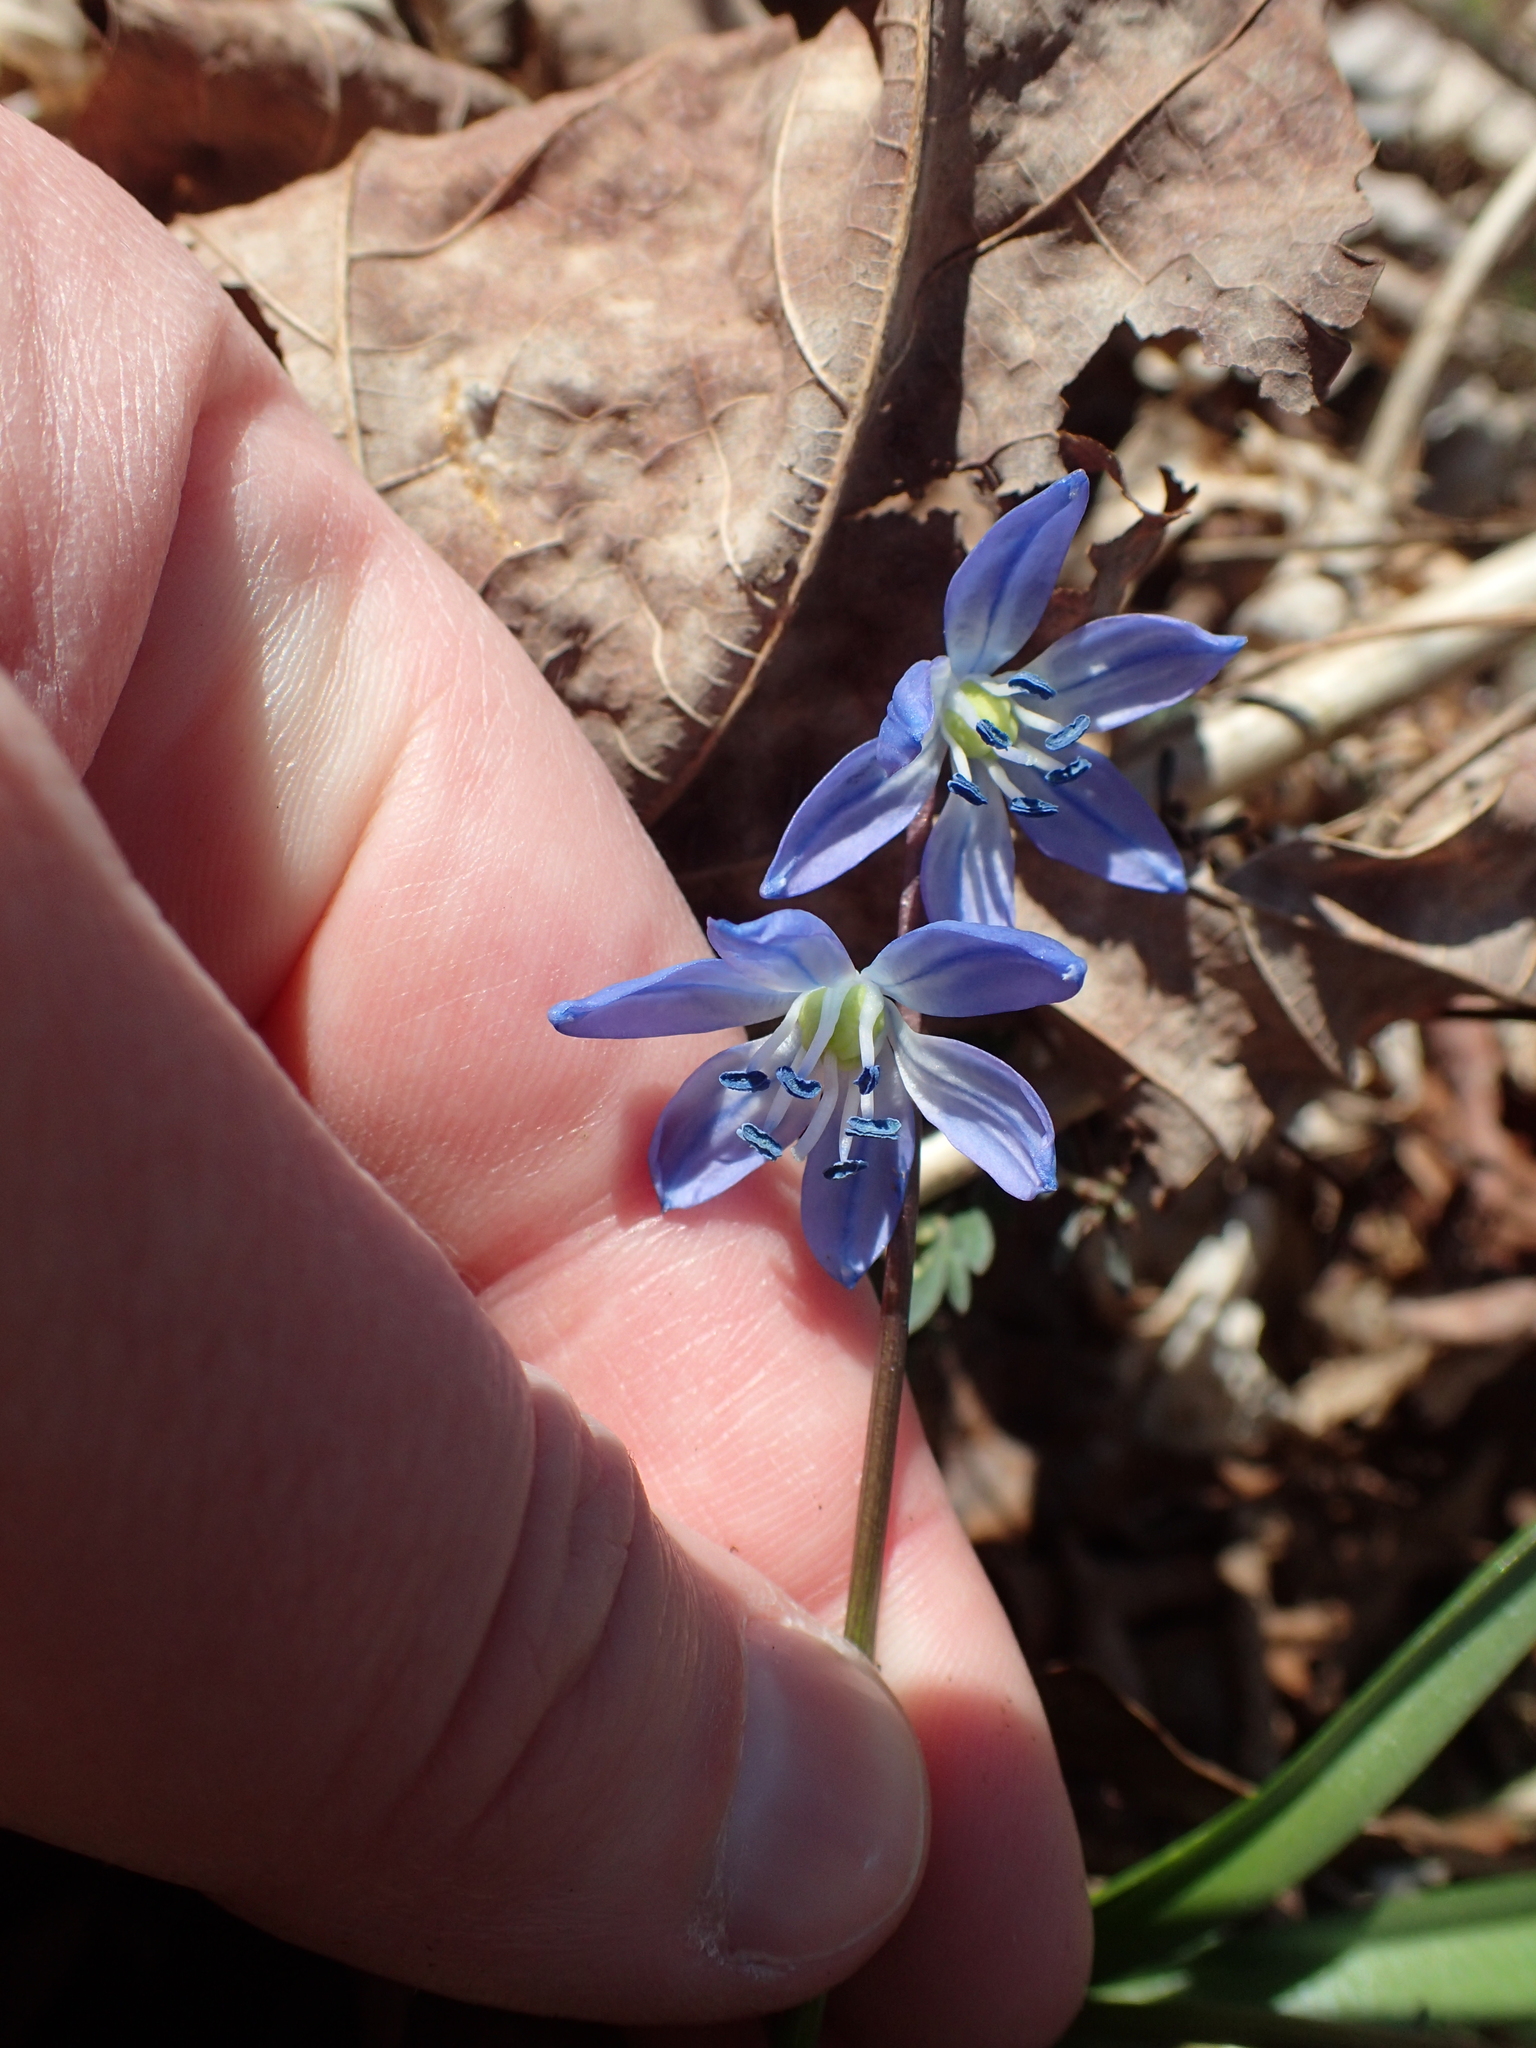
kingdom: Plantae
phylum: Tracheophyta
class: Liliopsida
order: Asparagales
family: Asparagaceae
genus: Scilla
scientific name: Scilla siberica
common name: Siberian squill
